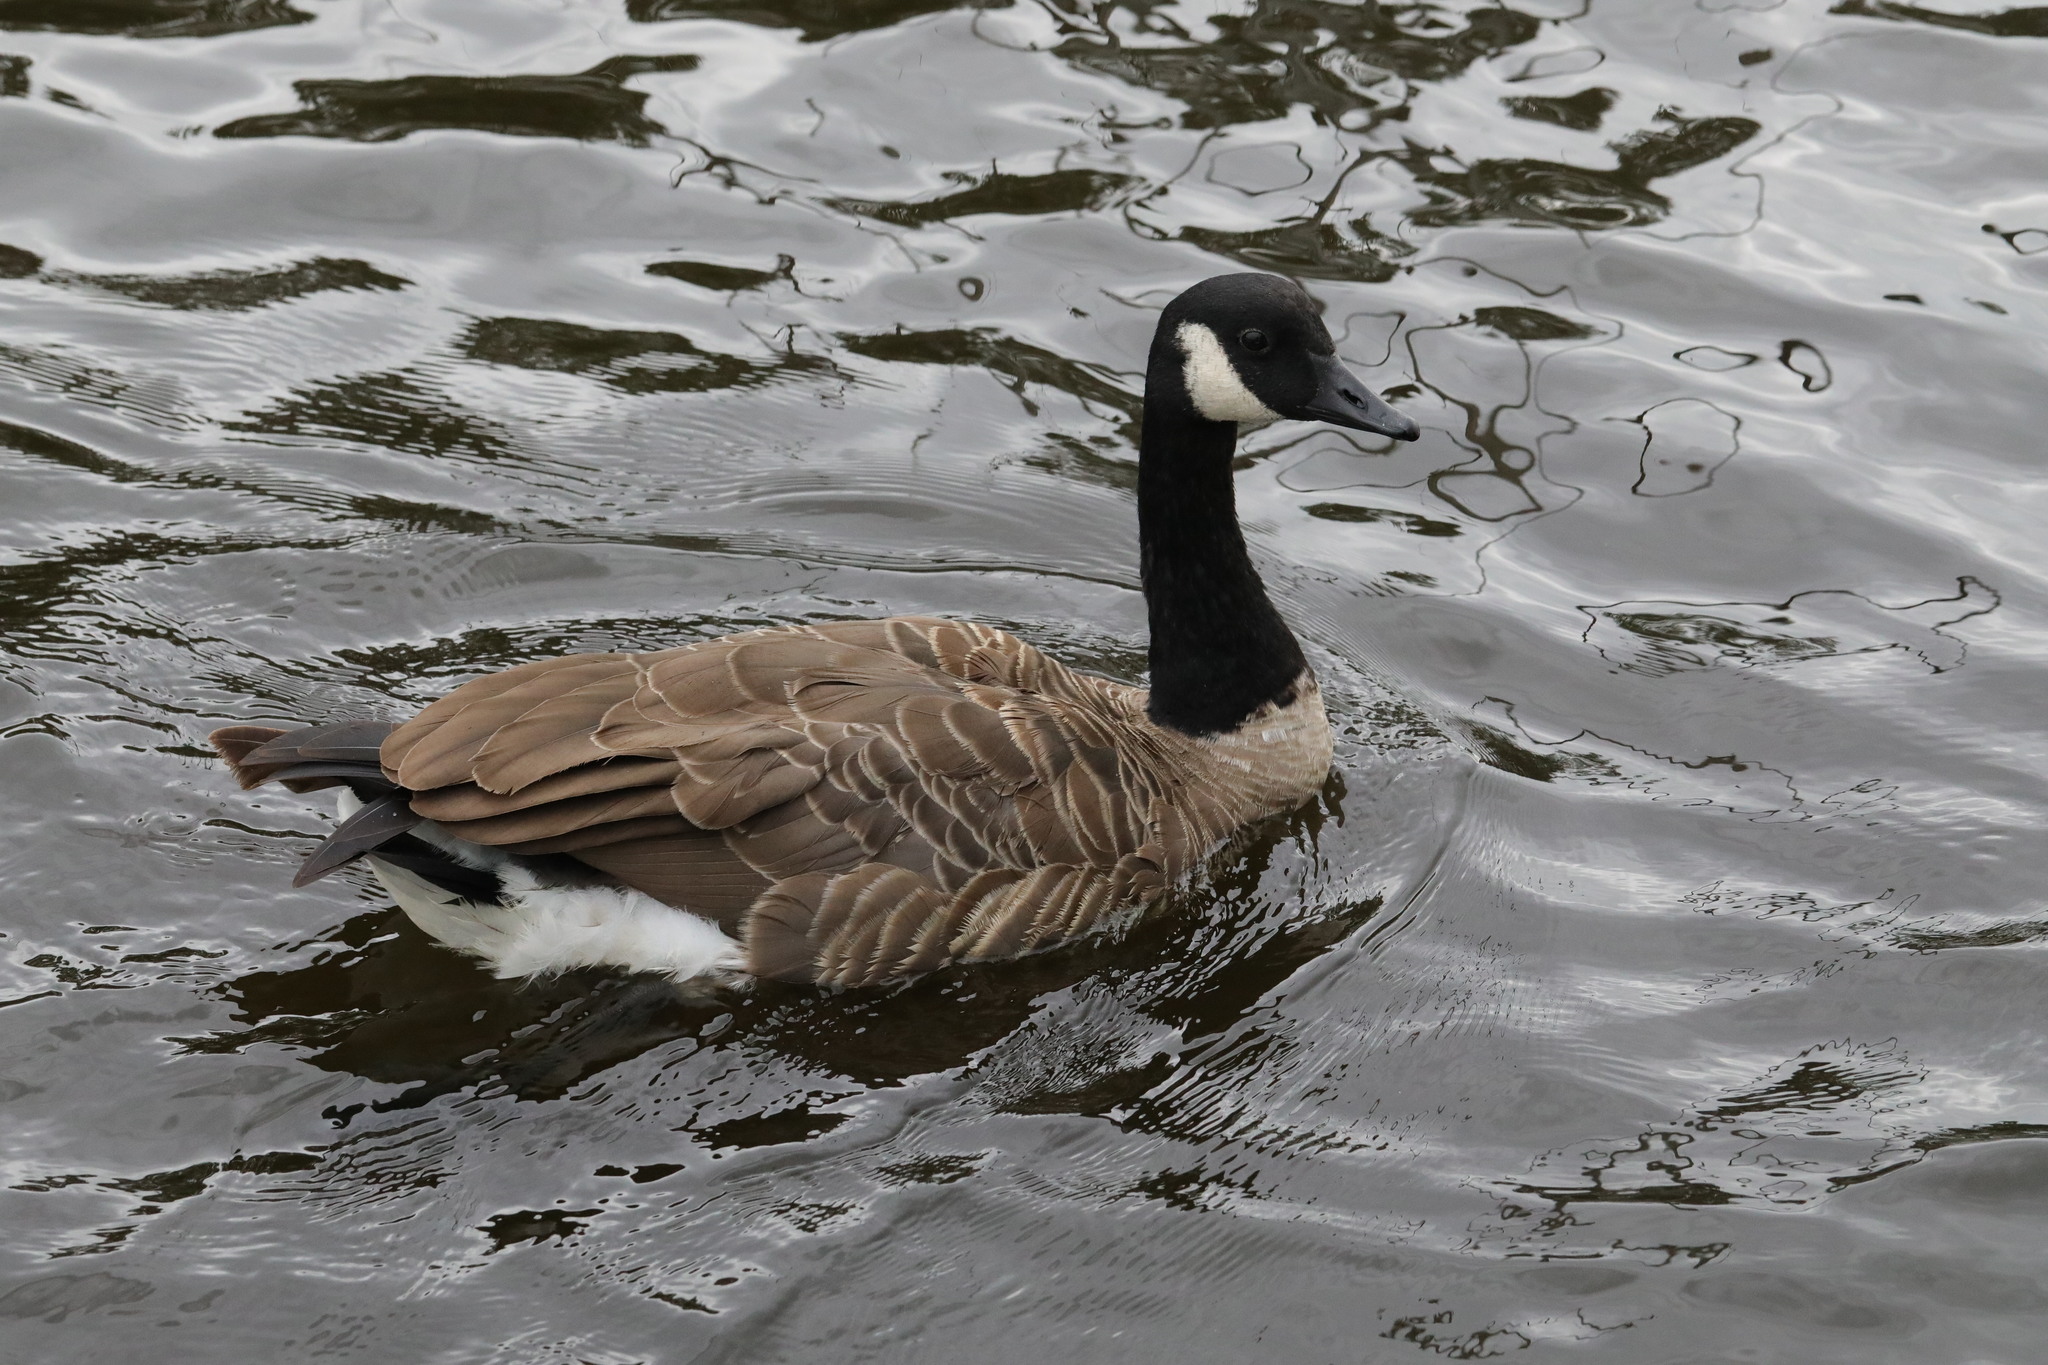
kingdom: Animalia
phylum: Chordata
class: Aves
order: Anseriformes
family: Anatidae
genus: Branta
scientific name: Branta canadensis
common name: Canada goose
